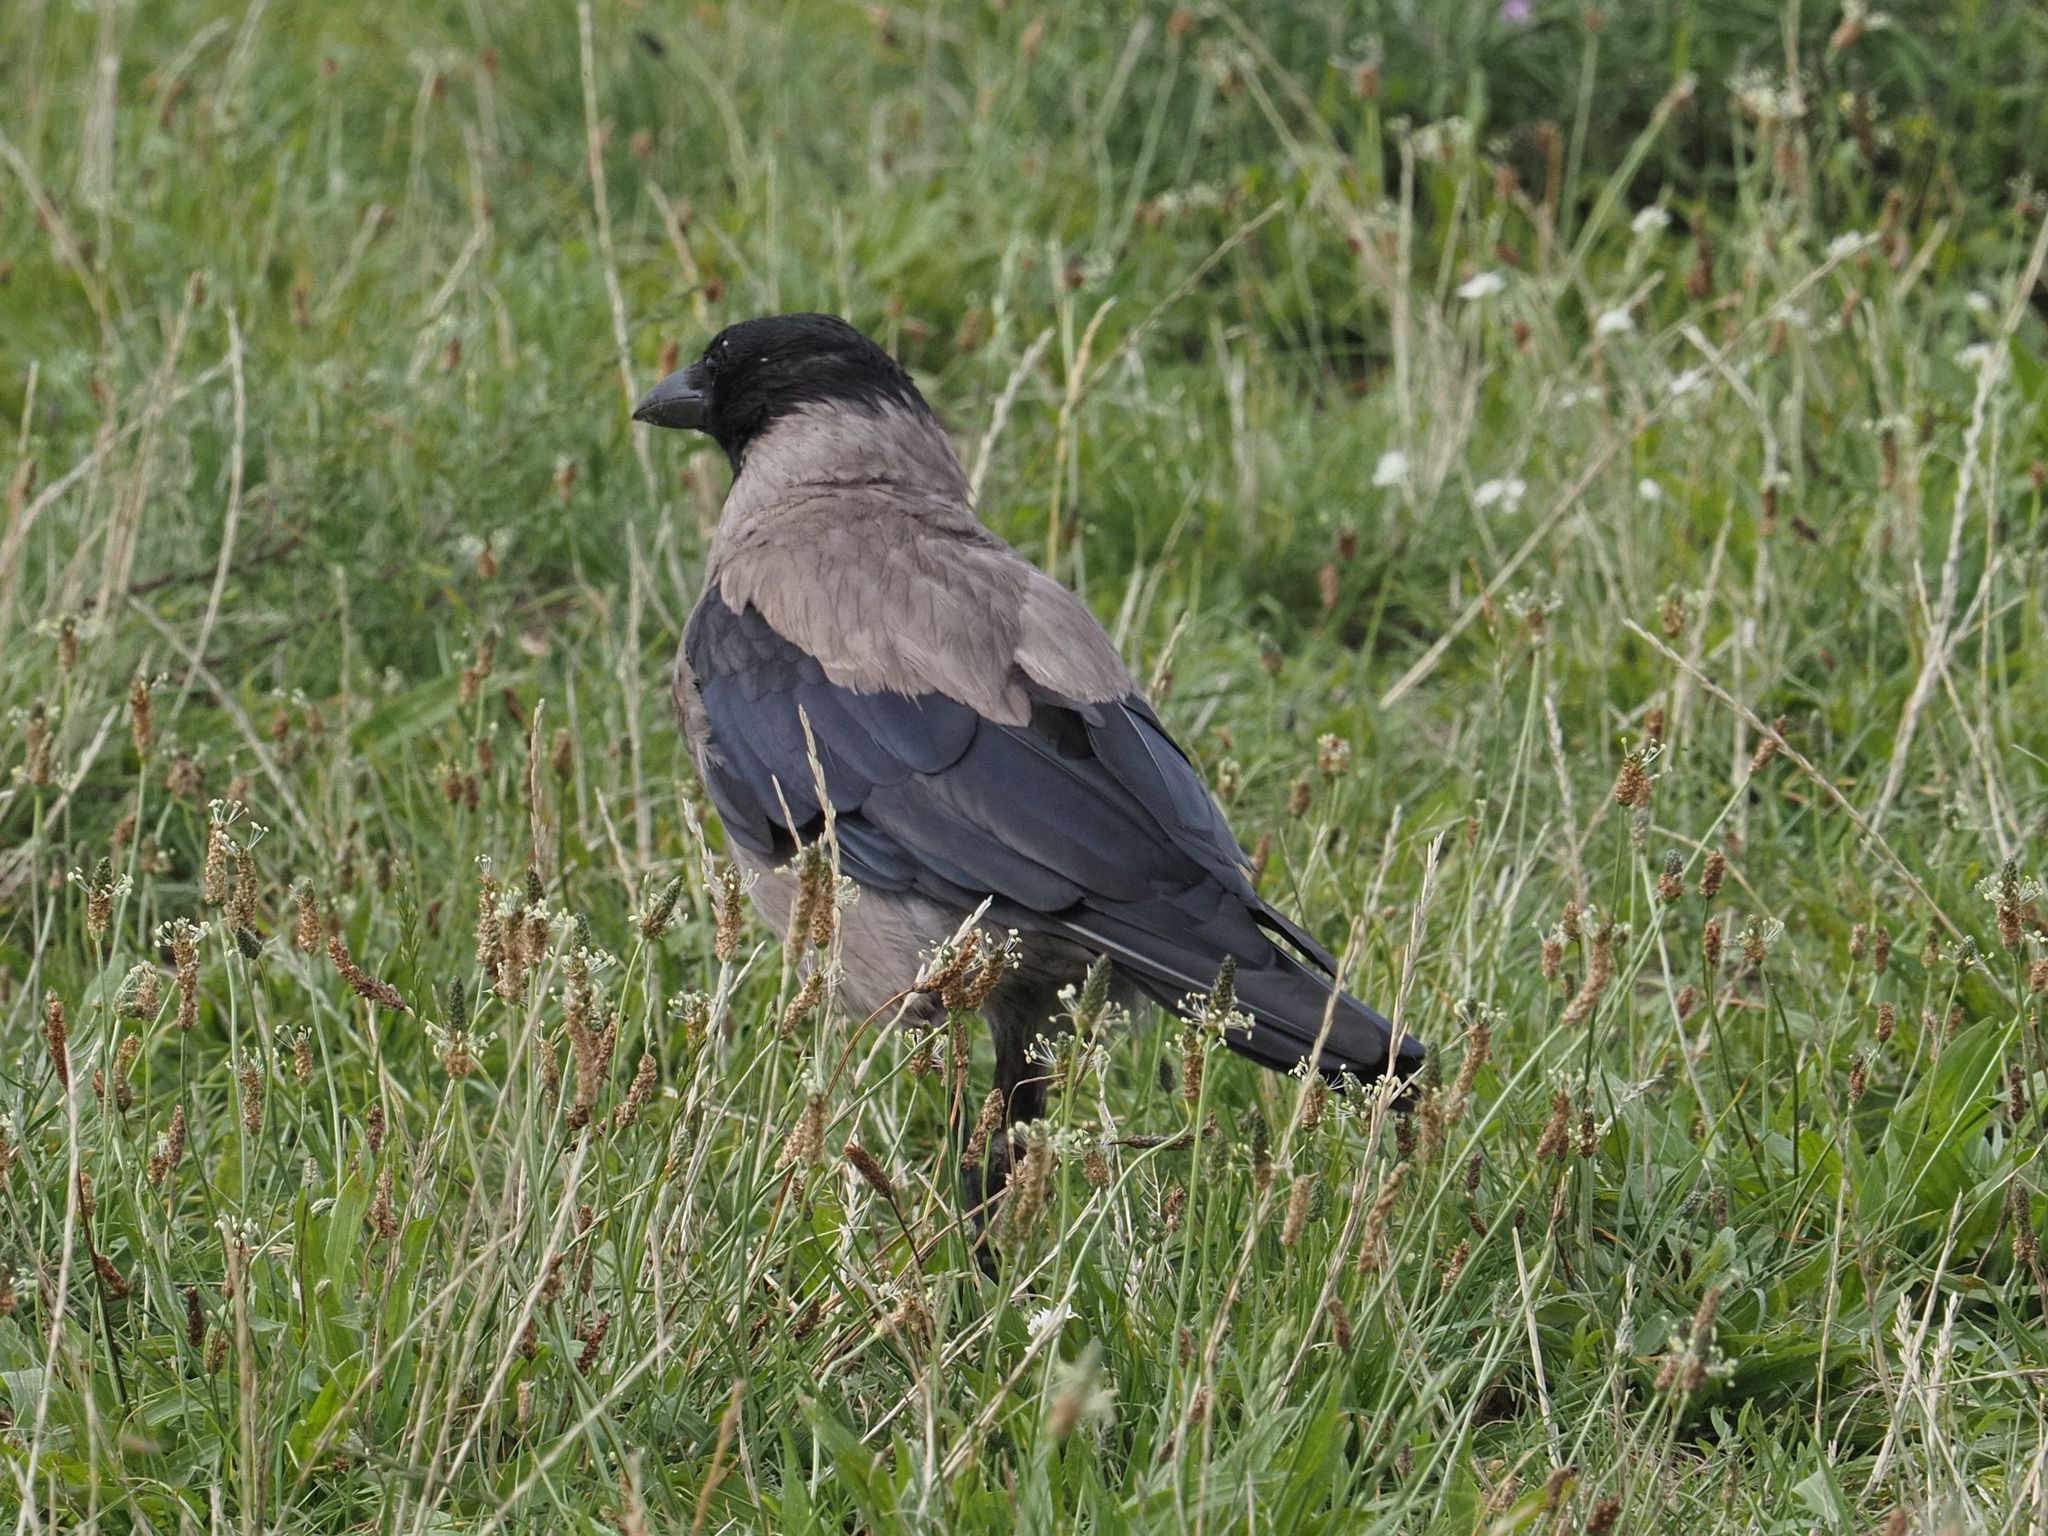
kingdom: Animalia
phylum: Chordata
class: Aves
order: Passeriformes
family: Corvidae
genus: Corvus
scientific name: Corvus cornix
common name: Hooded crow
